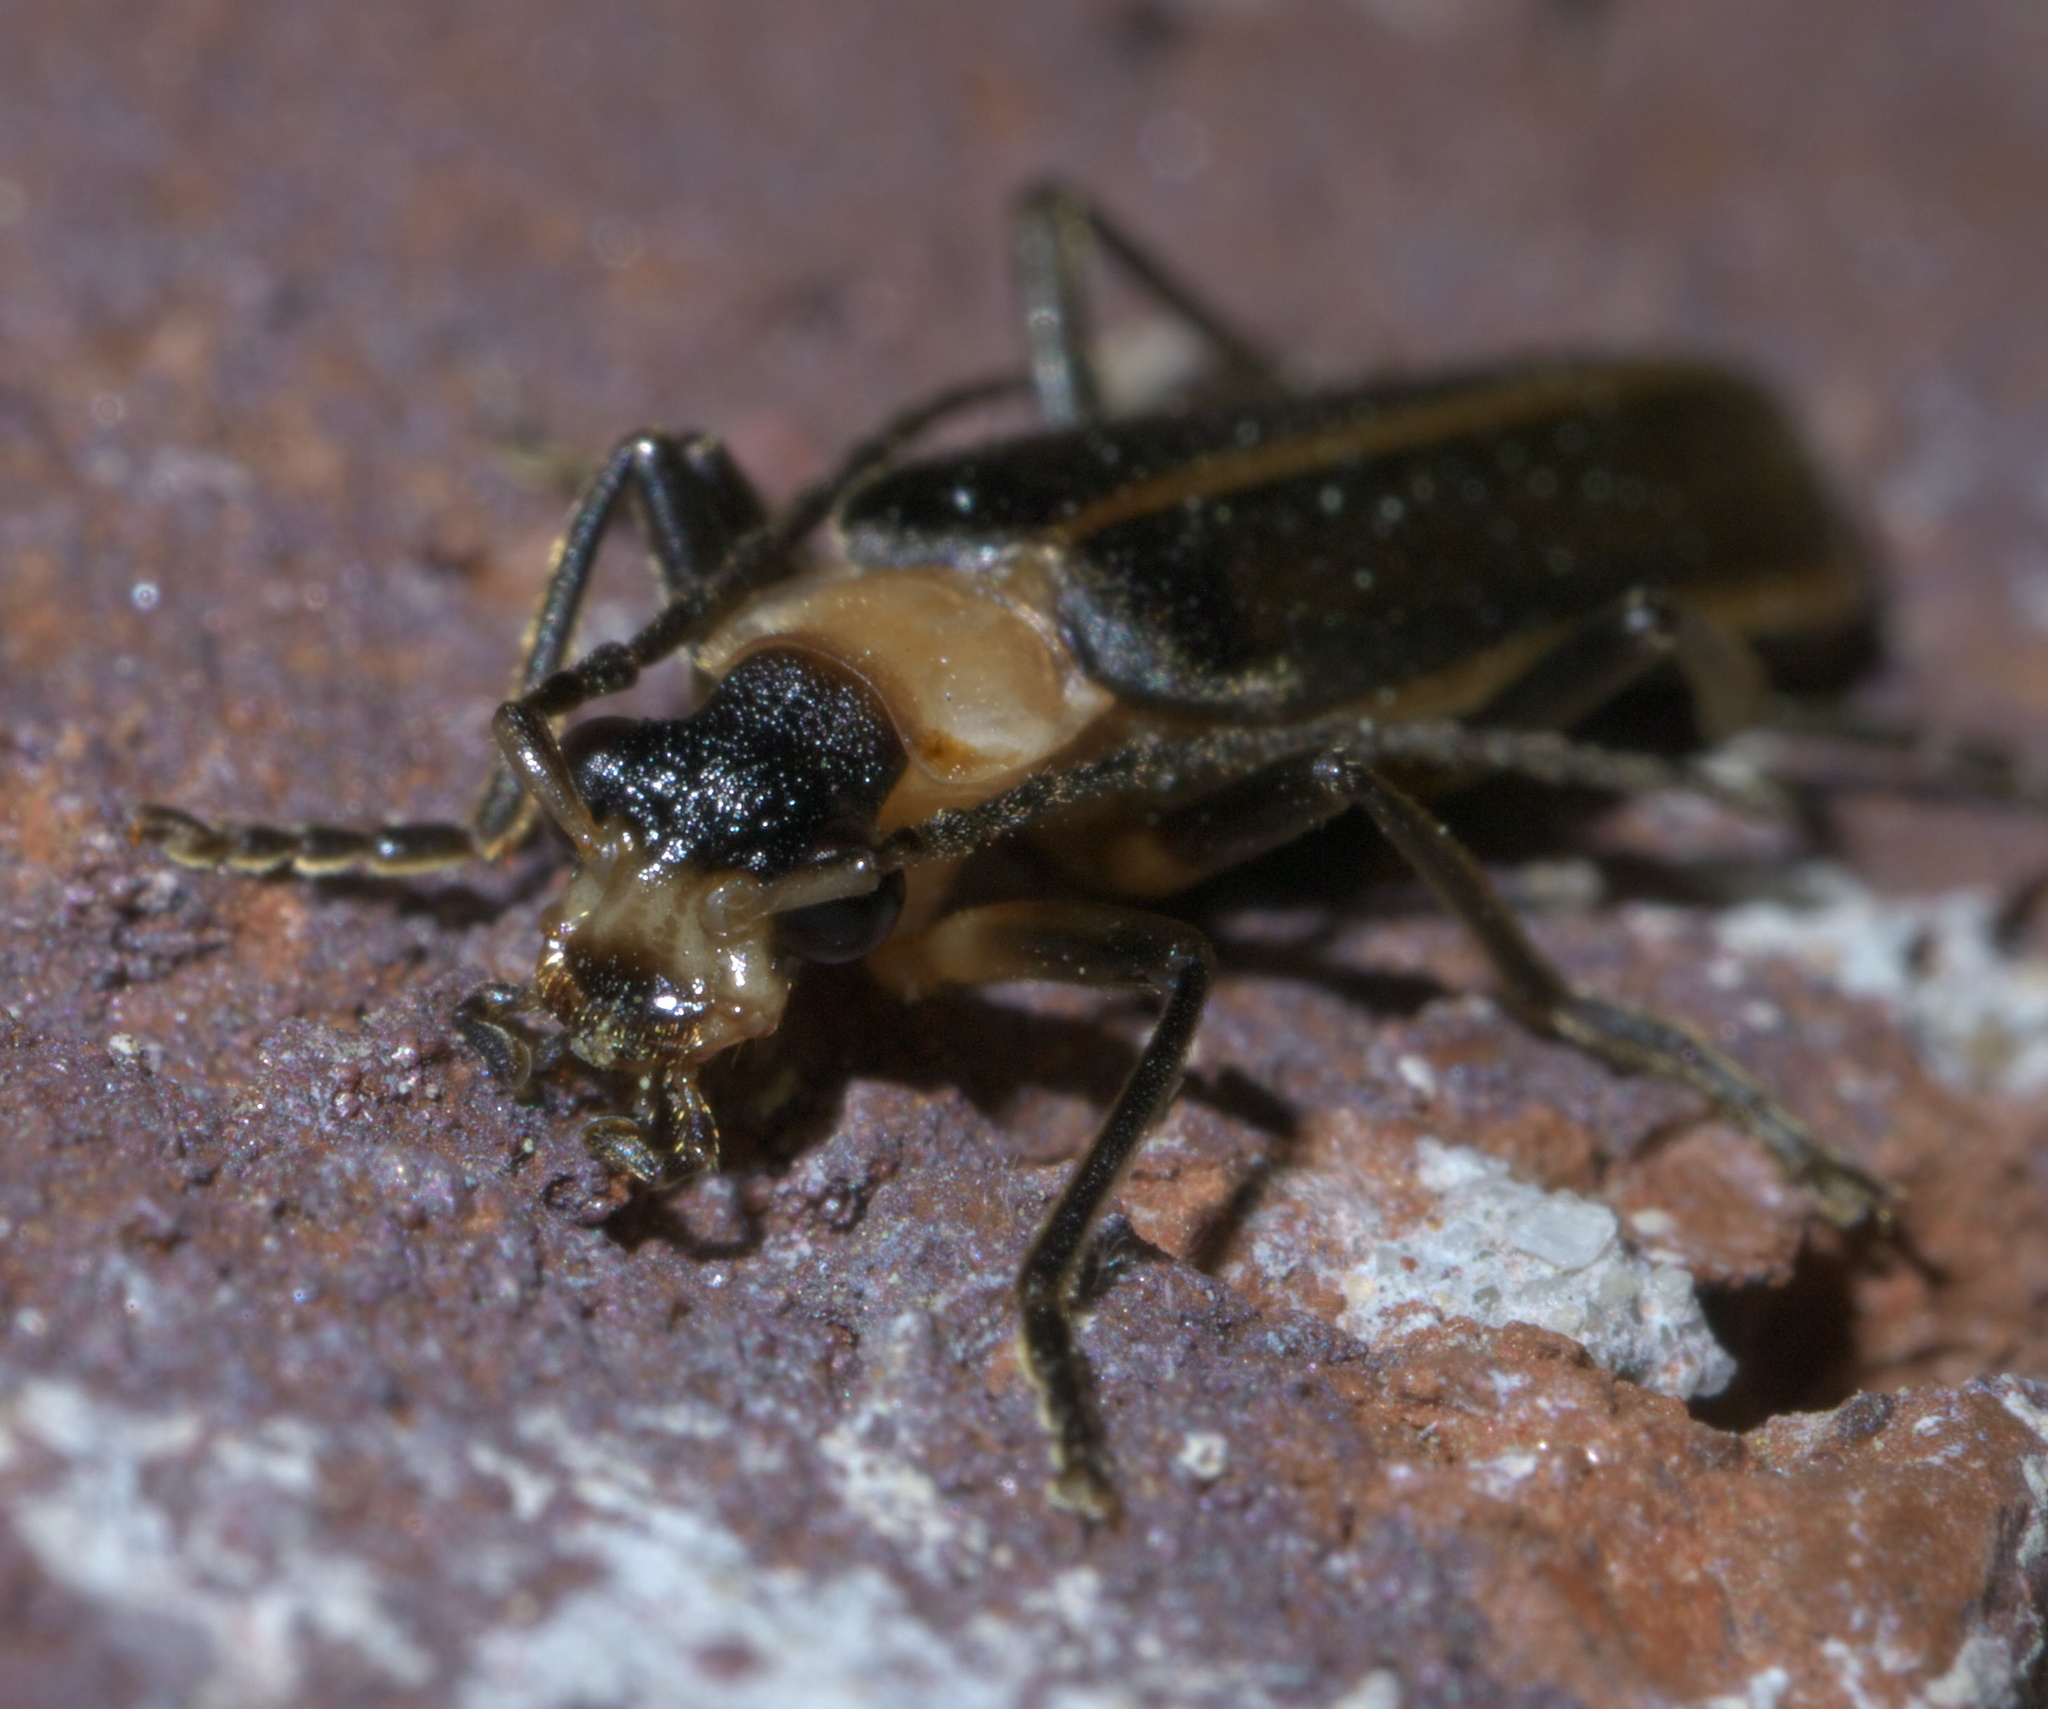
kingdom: Animalia
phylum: Arthropoda
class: Insecta
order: Coleoptera
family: Cantharidae
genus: Podabrus
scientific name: Podabrus flavicollis
